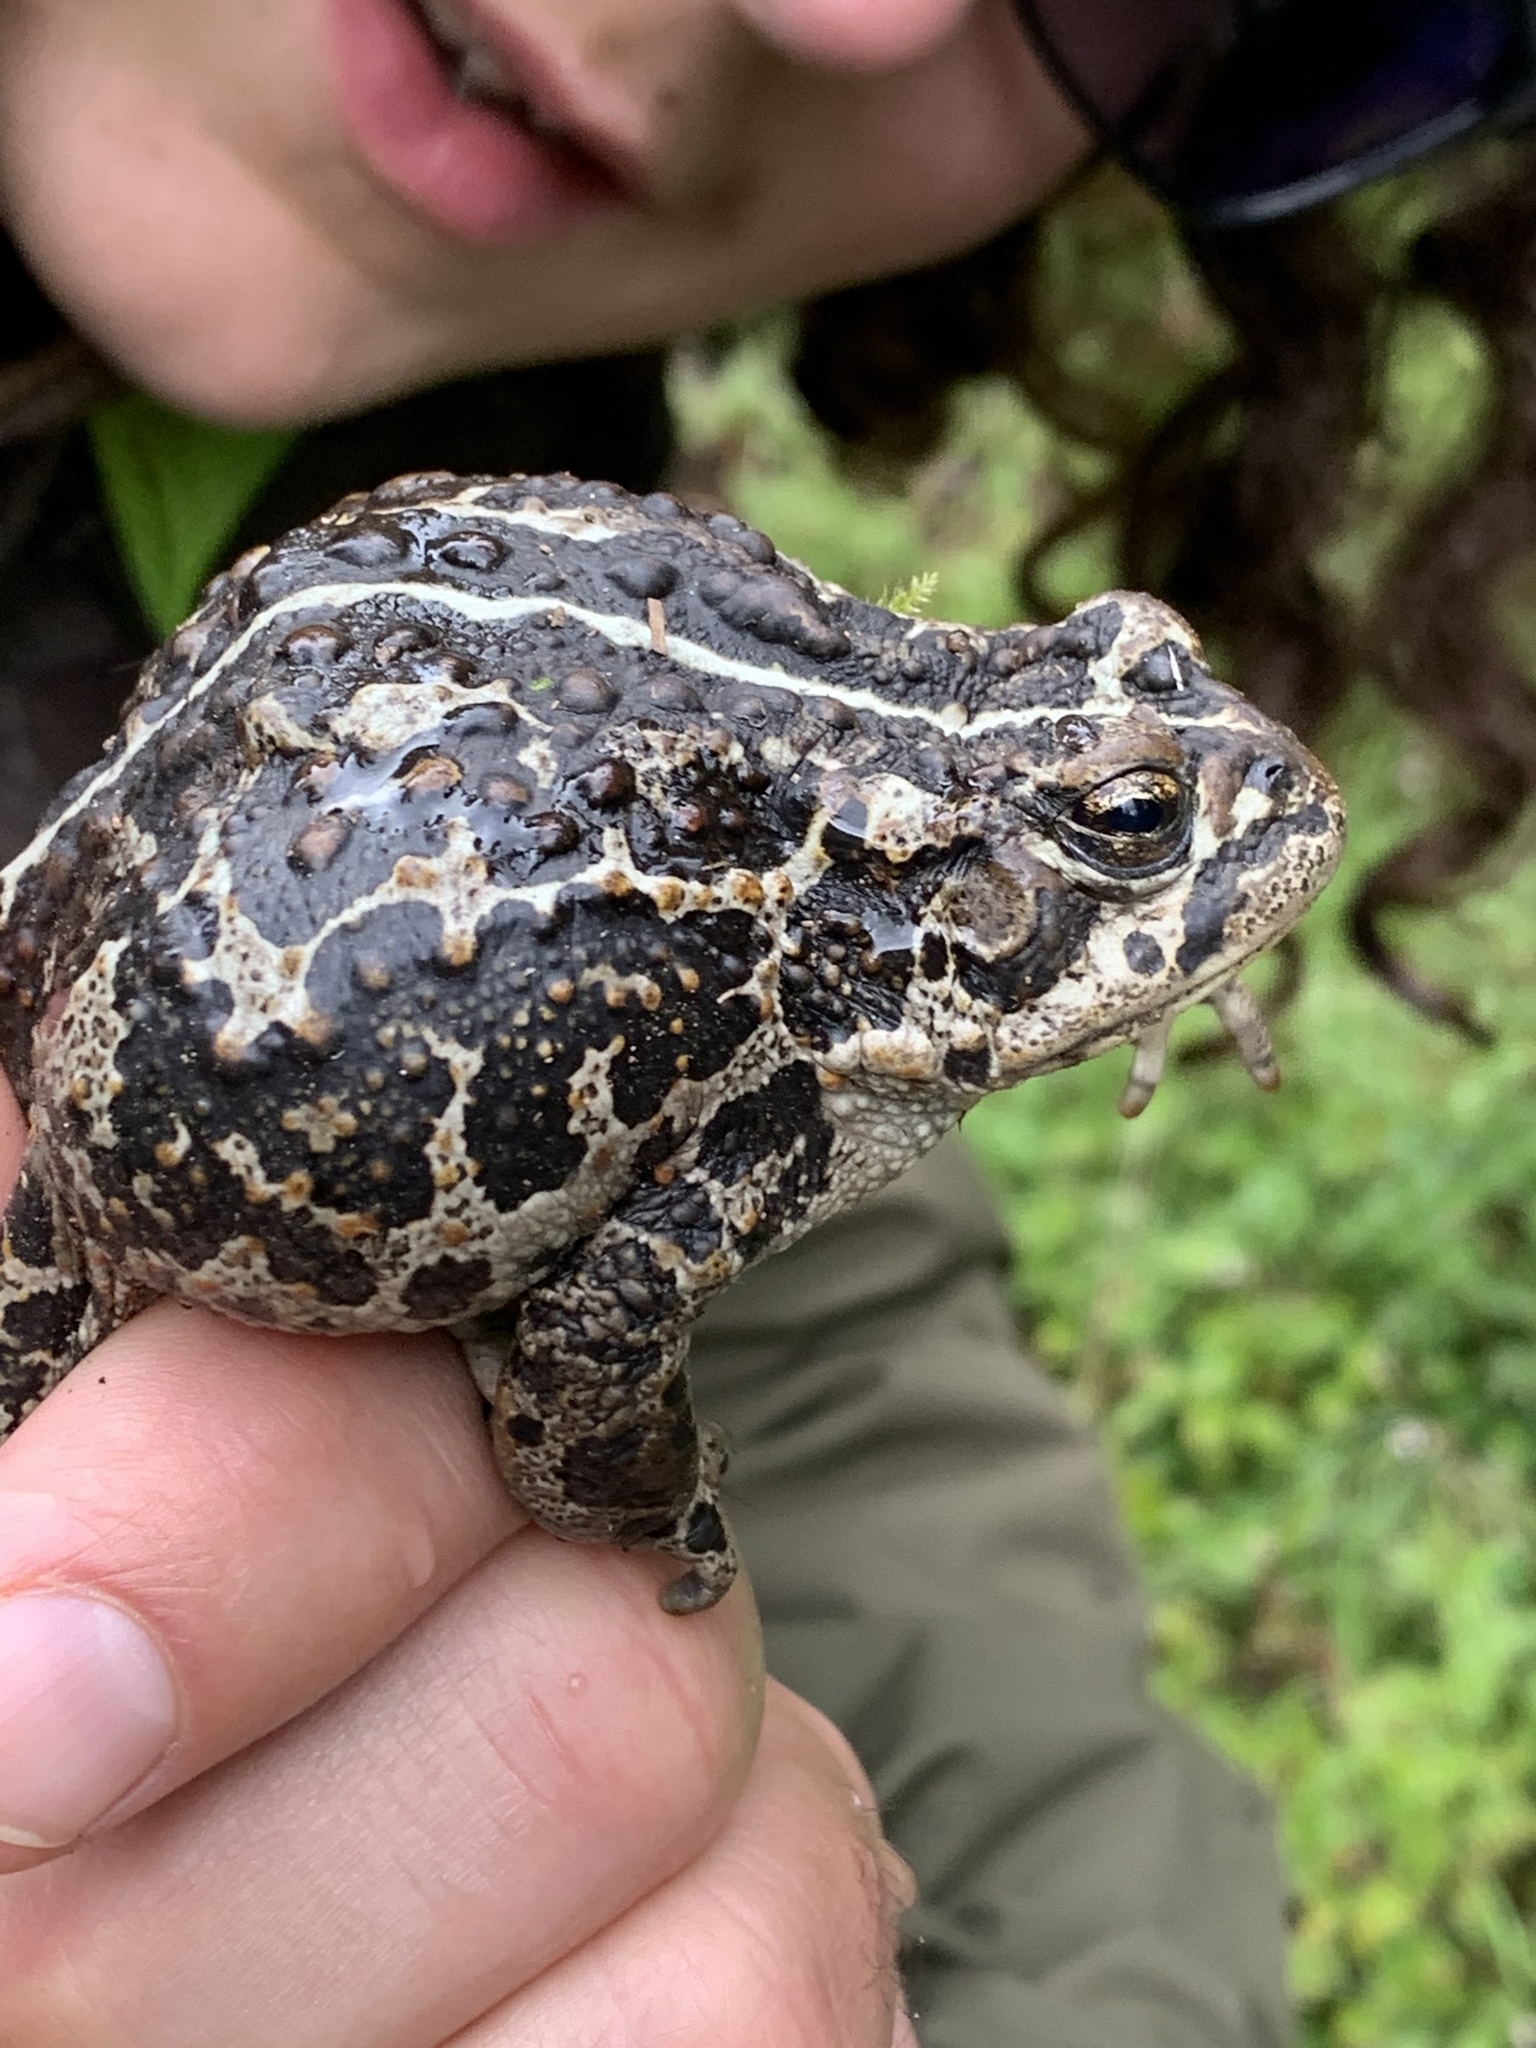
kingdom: Animalia
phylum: Chordata
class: Amphibia
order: Anura
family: Bufonidae
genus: Anaxyrus
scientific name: Anaxyrus boreas
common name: Western toad
